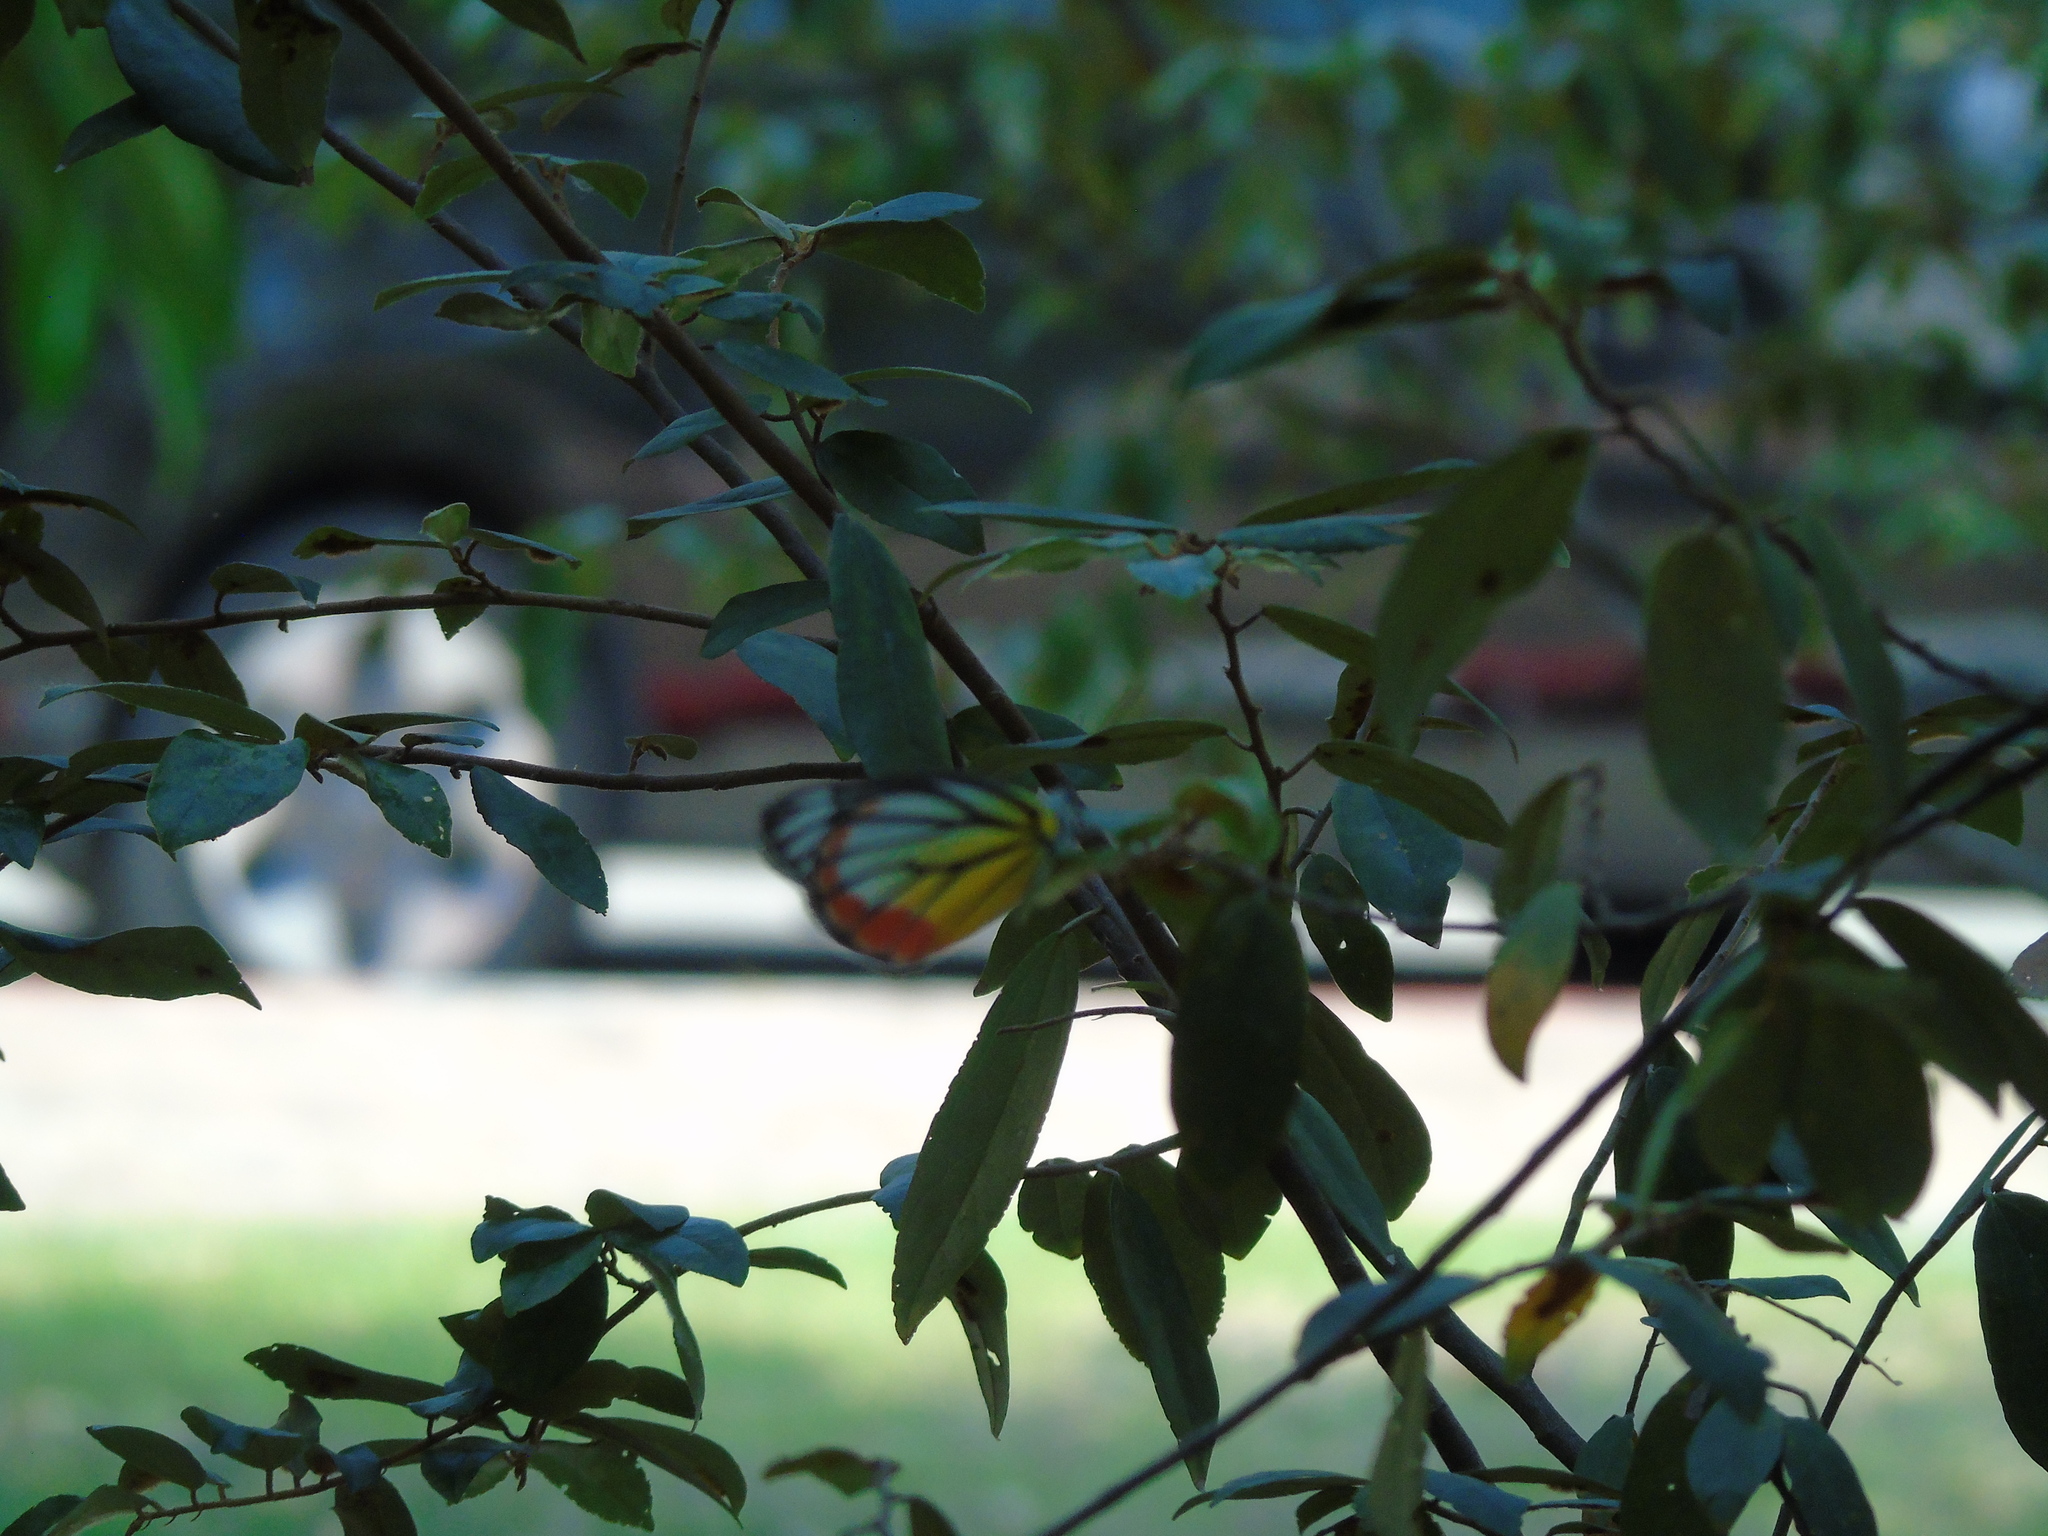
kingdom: Animalia
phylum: Arthropoda
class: Insecta
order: Lepidoptera
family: Pieridae
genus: Delias
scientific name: Delias hyparete
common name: Painted jezebel
